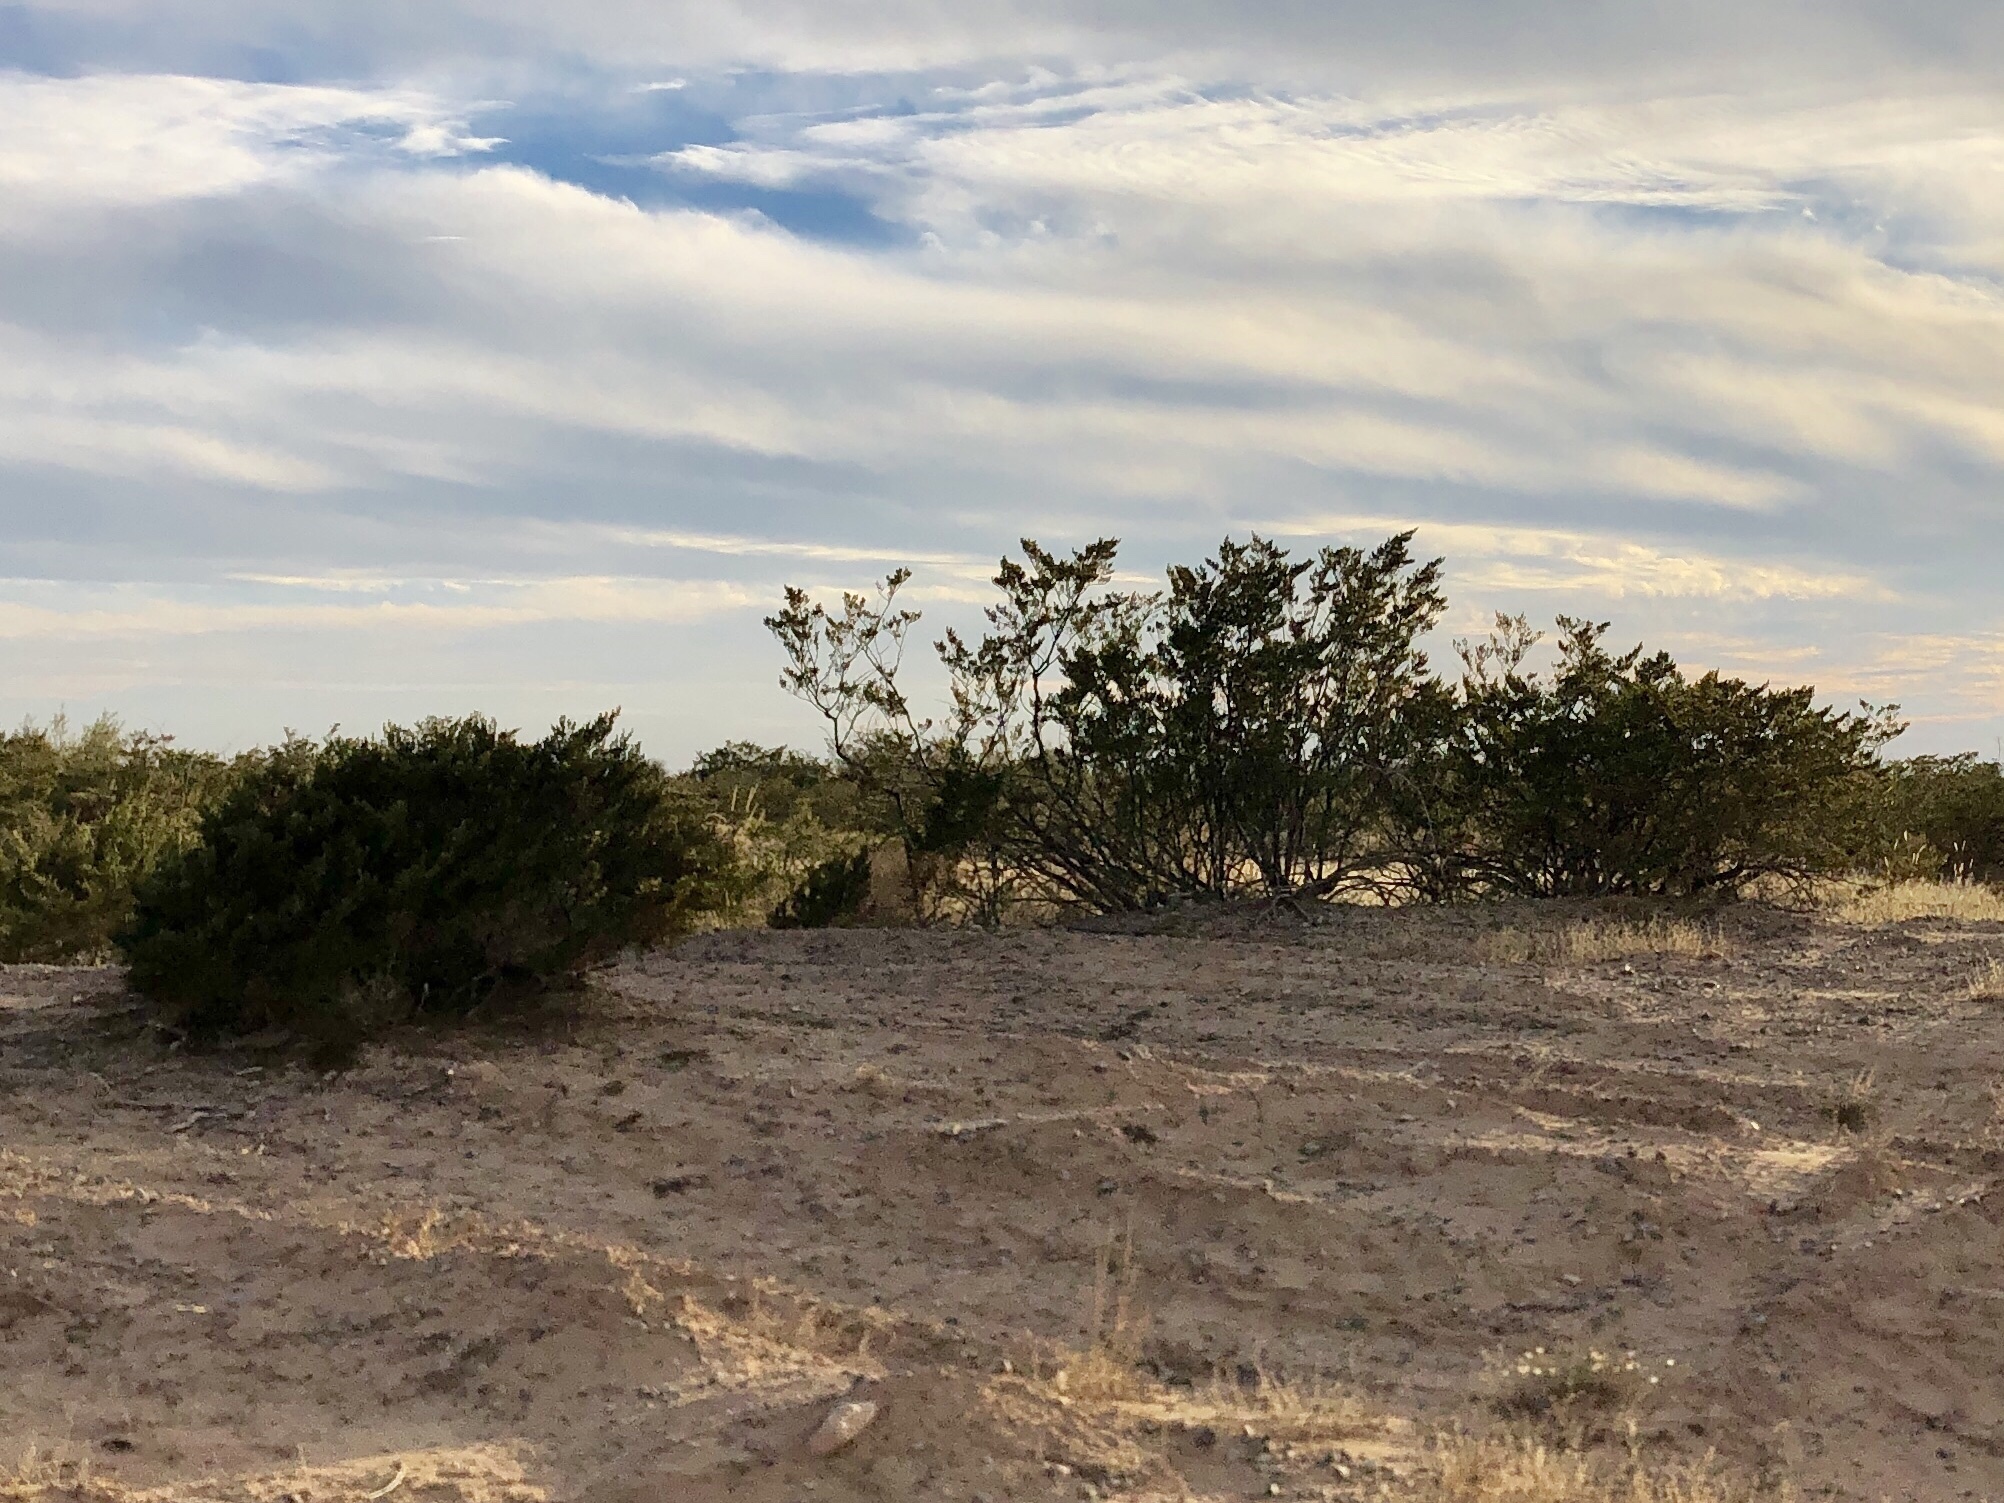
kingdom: Plantae
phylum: Tracheophyta
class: Magnoliopsida
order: Zygophyllales
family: Zygophyllaceae
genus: Larrea
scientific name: Larrea tridentata
